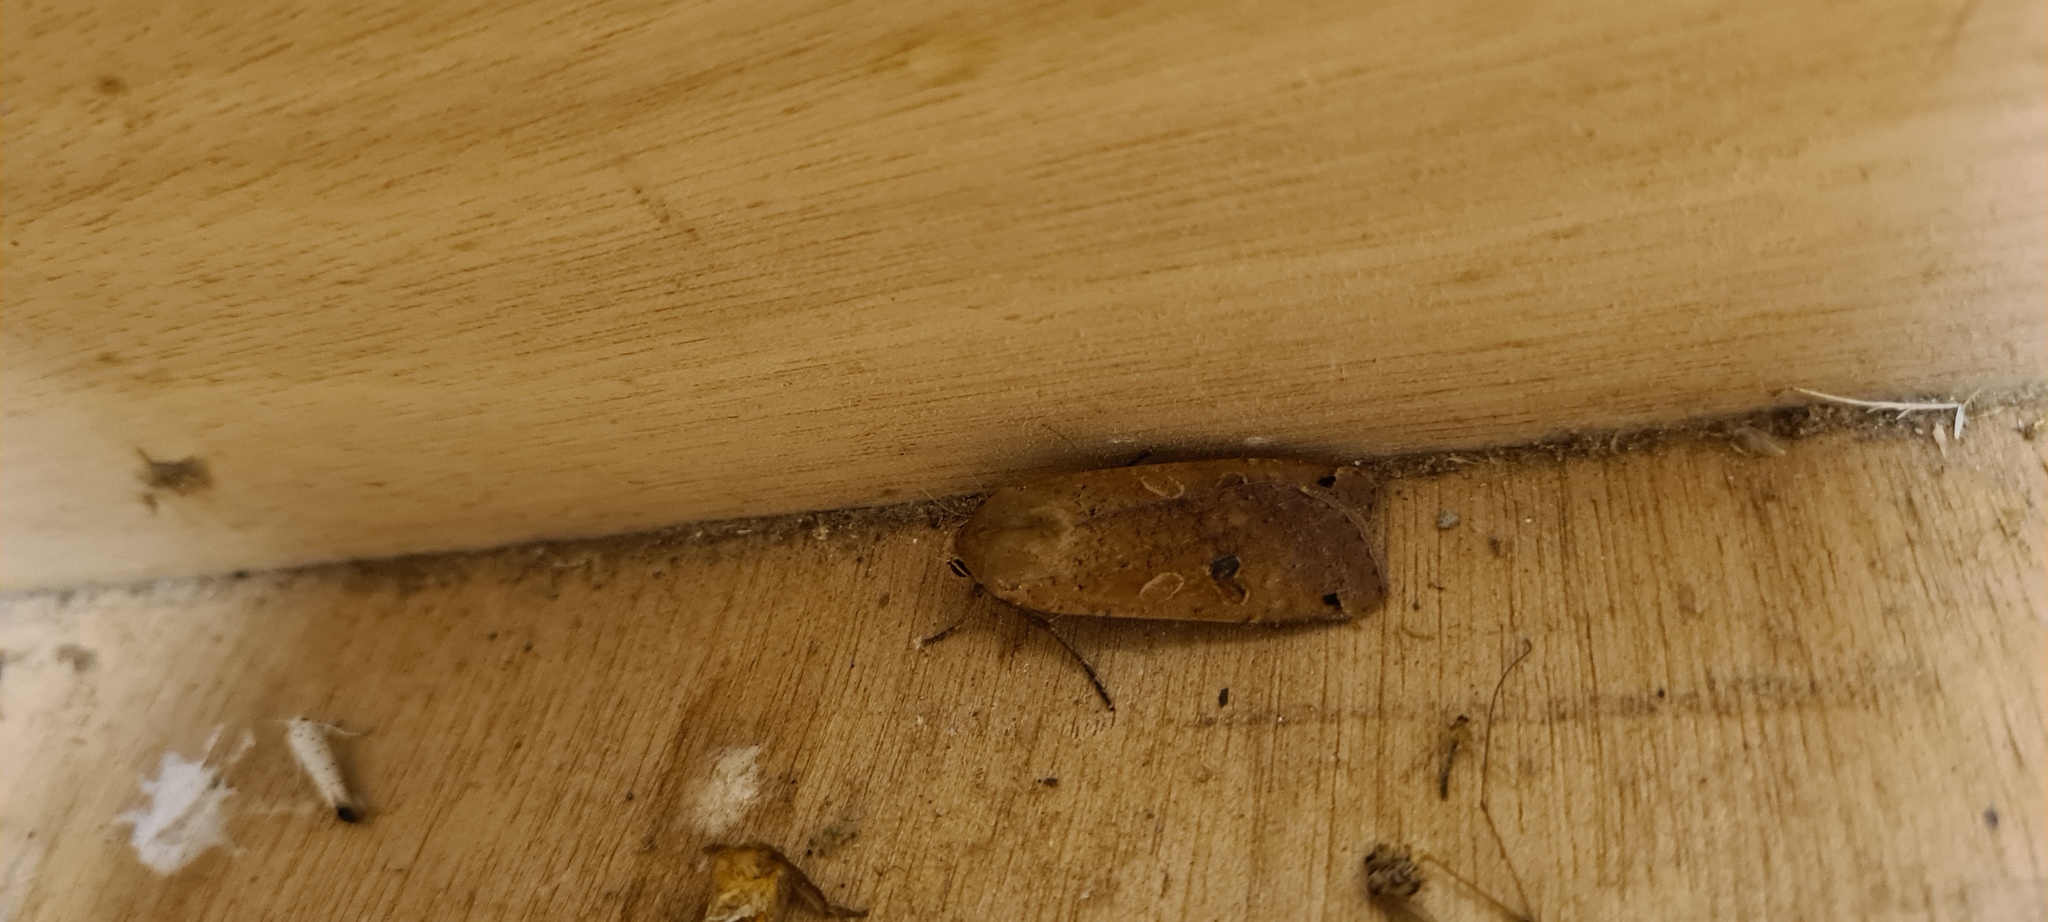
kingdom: Animalia
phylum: Arthropoda
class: Insecta
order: Lepidoptera
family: Noctuidae
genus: Noctua
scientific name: Noctua pronuba
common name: Large yellow underwing
